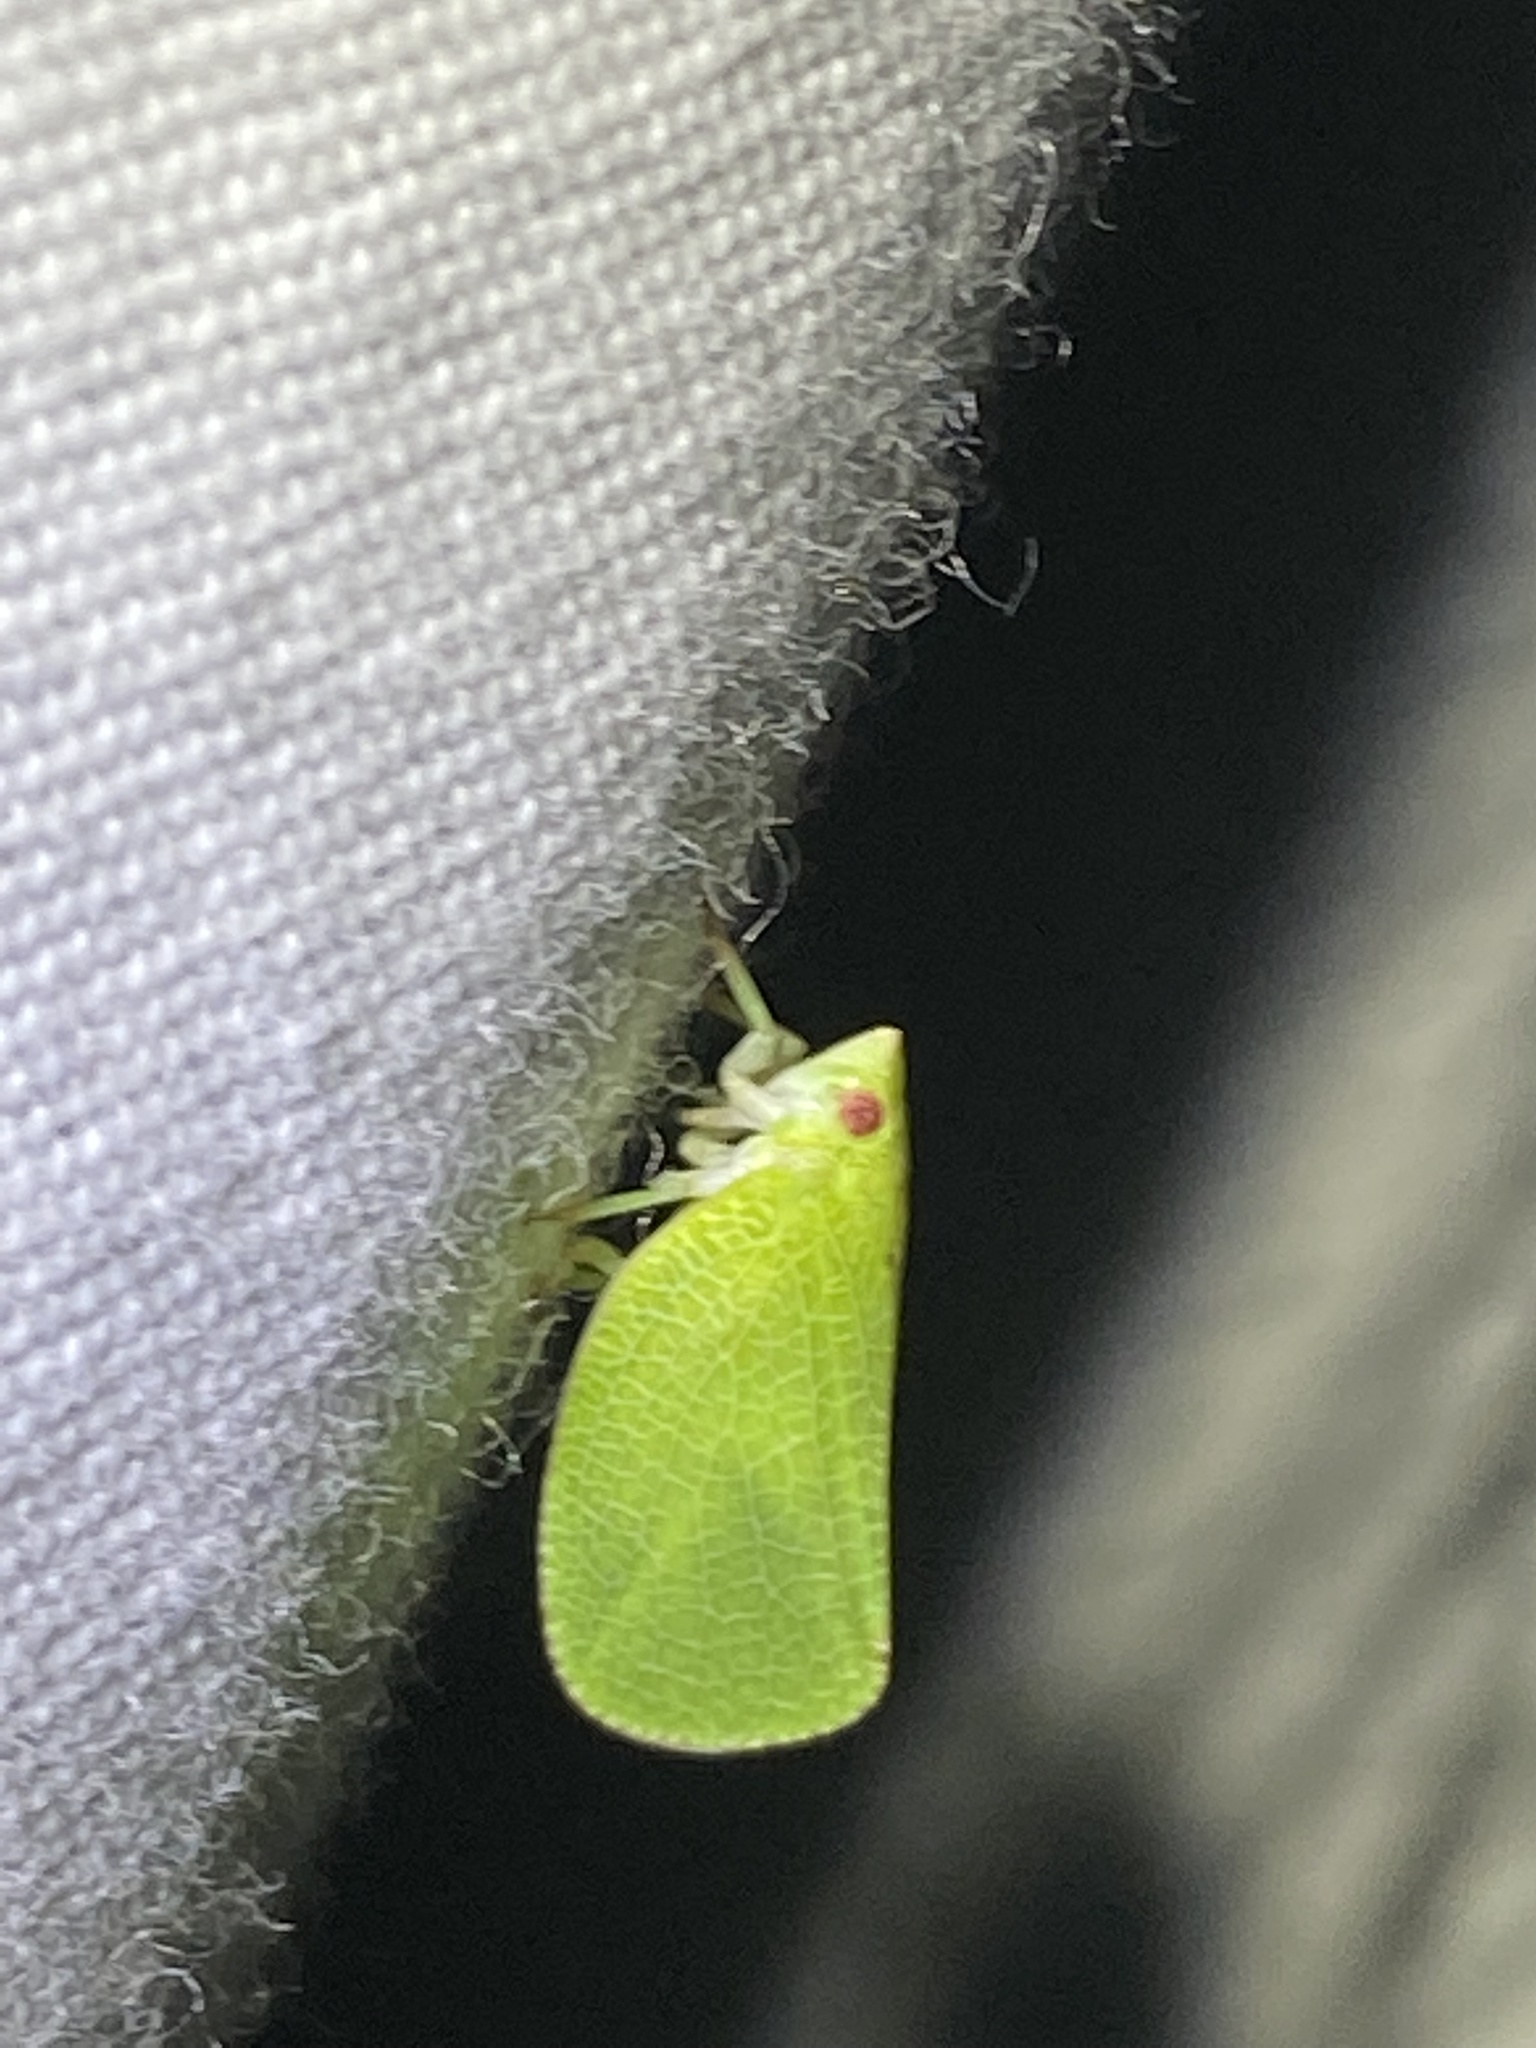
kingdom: Animalia
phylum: Arthropoda
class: Insecta
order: Hemiptera
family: Acanaloniidae
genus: Acanalonia
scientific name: Acanalonia conica
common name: Green cone-headed planthopper
